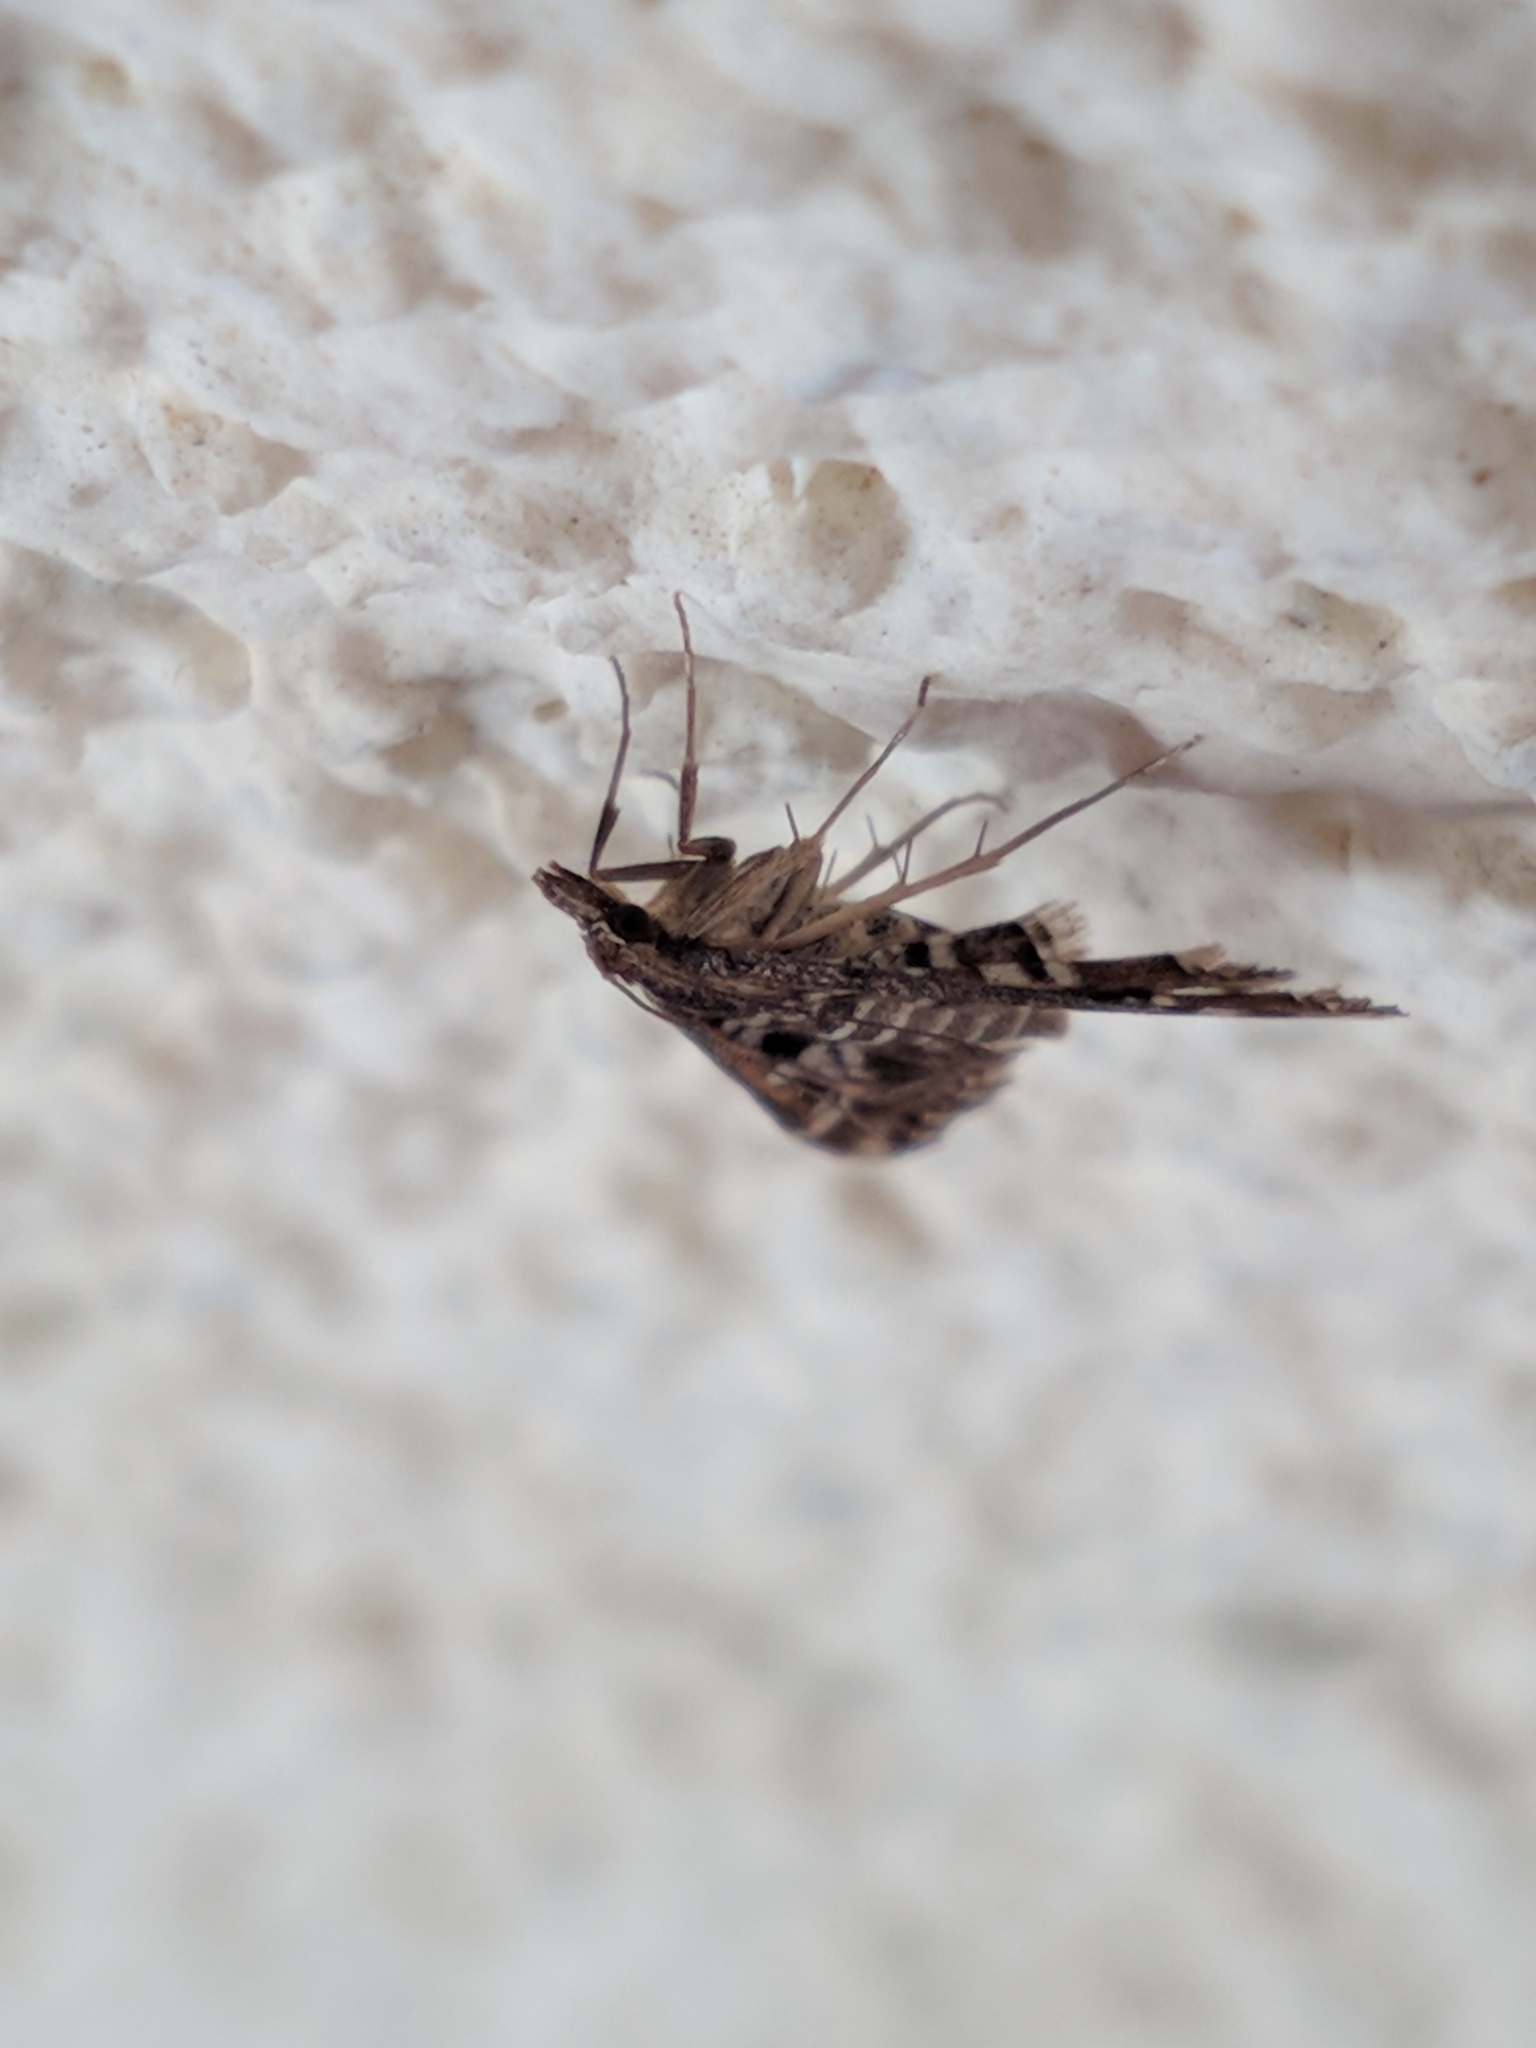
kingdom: Animalia
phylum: Arthropoda
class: Insecta
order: Lepidoptera
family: Crambidae
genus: Diasemia
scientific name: Diasemia reticularis
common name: Lettered china-mark
